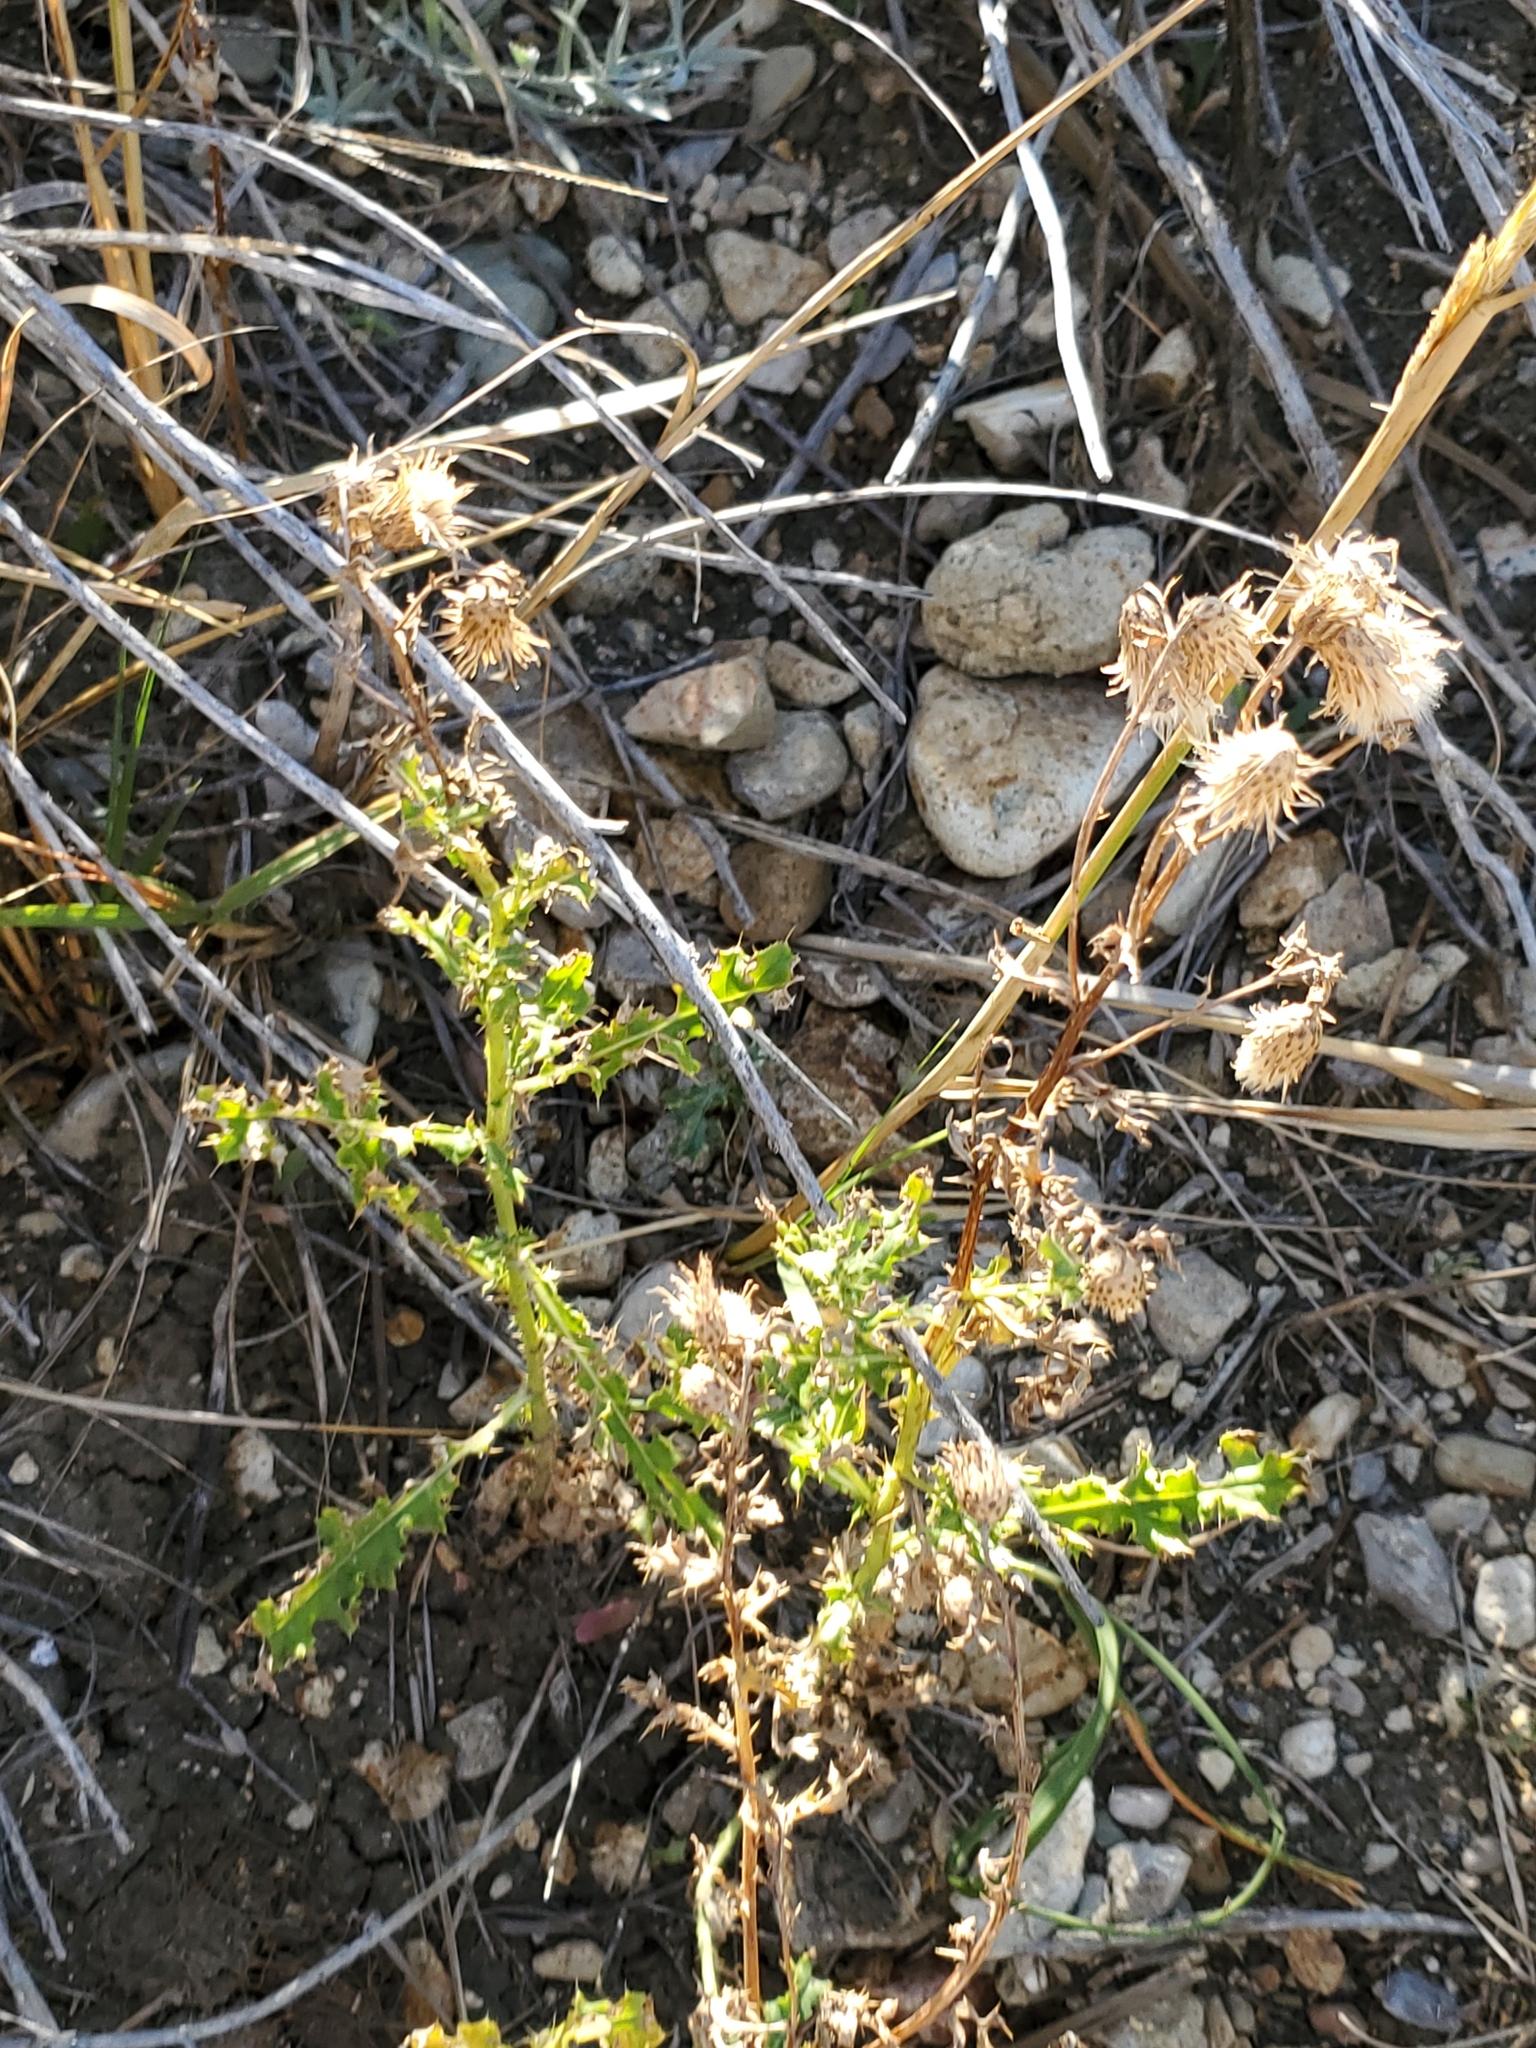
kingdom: Plantae
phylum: Tracheophyta
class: Magnoliopsida
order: Asterales
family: Asteraceae
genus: Cirsium
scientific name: Cirsium arvense
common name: Creeping thistle
